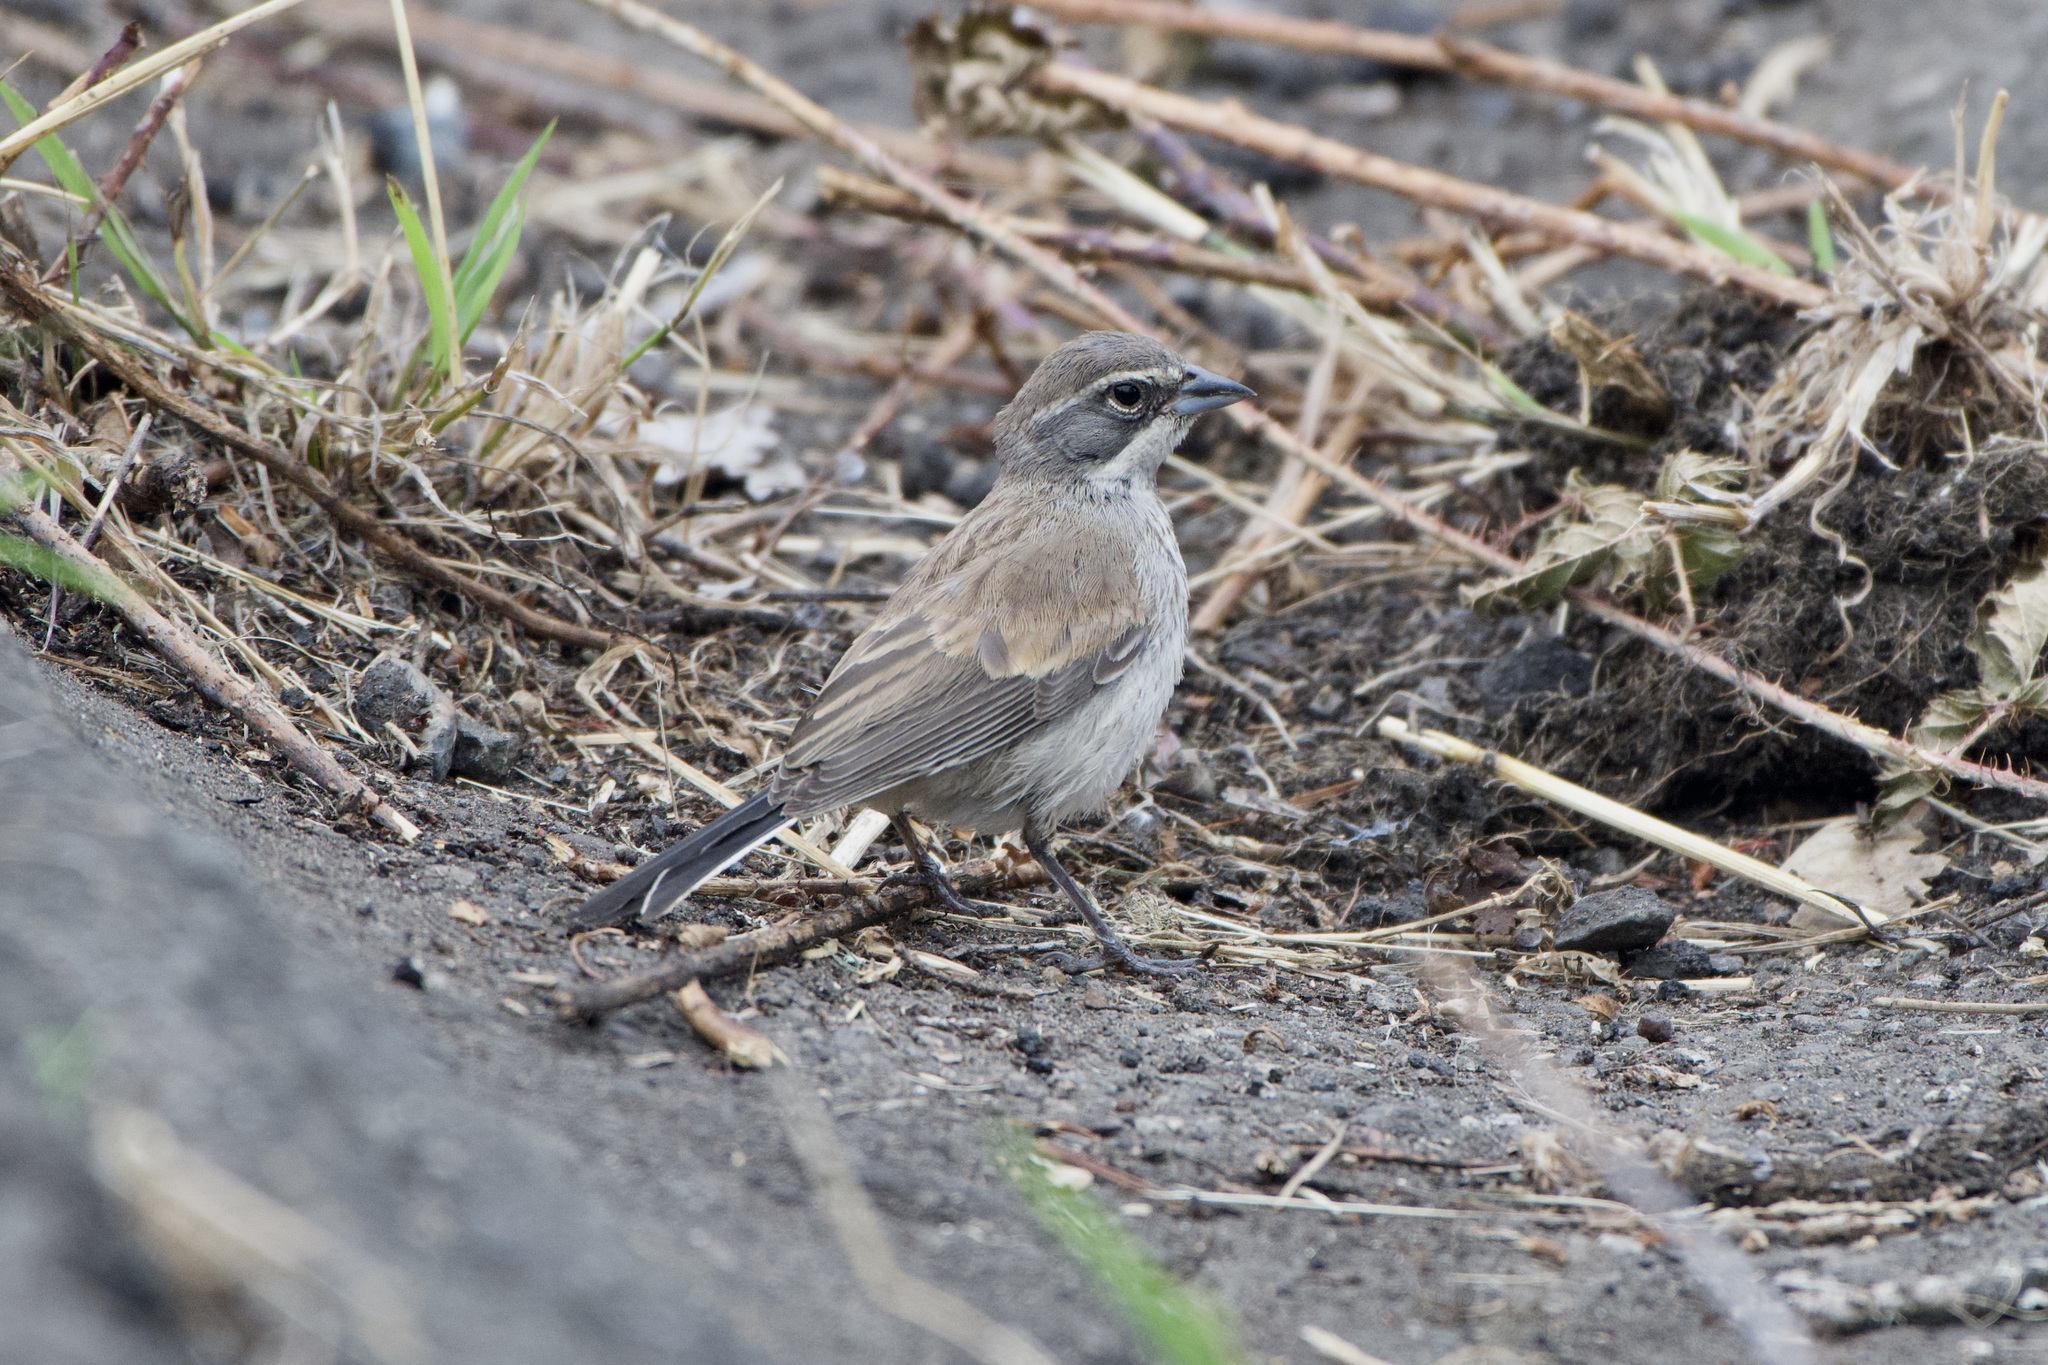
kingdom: Animalia
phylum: Chordata
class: Aves
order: Passeriformes
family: Passerellidae
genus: Amphispiza
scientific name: Amphispiza bilineata
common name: Black-throated sparrow
